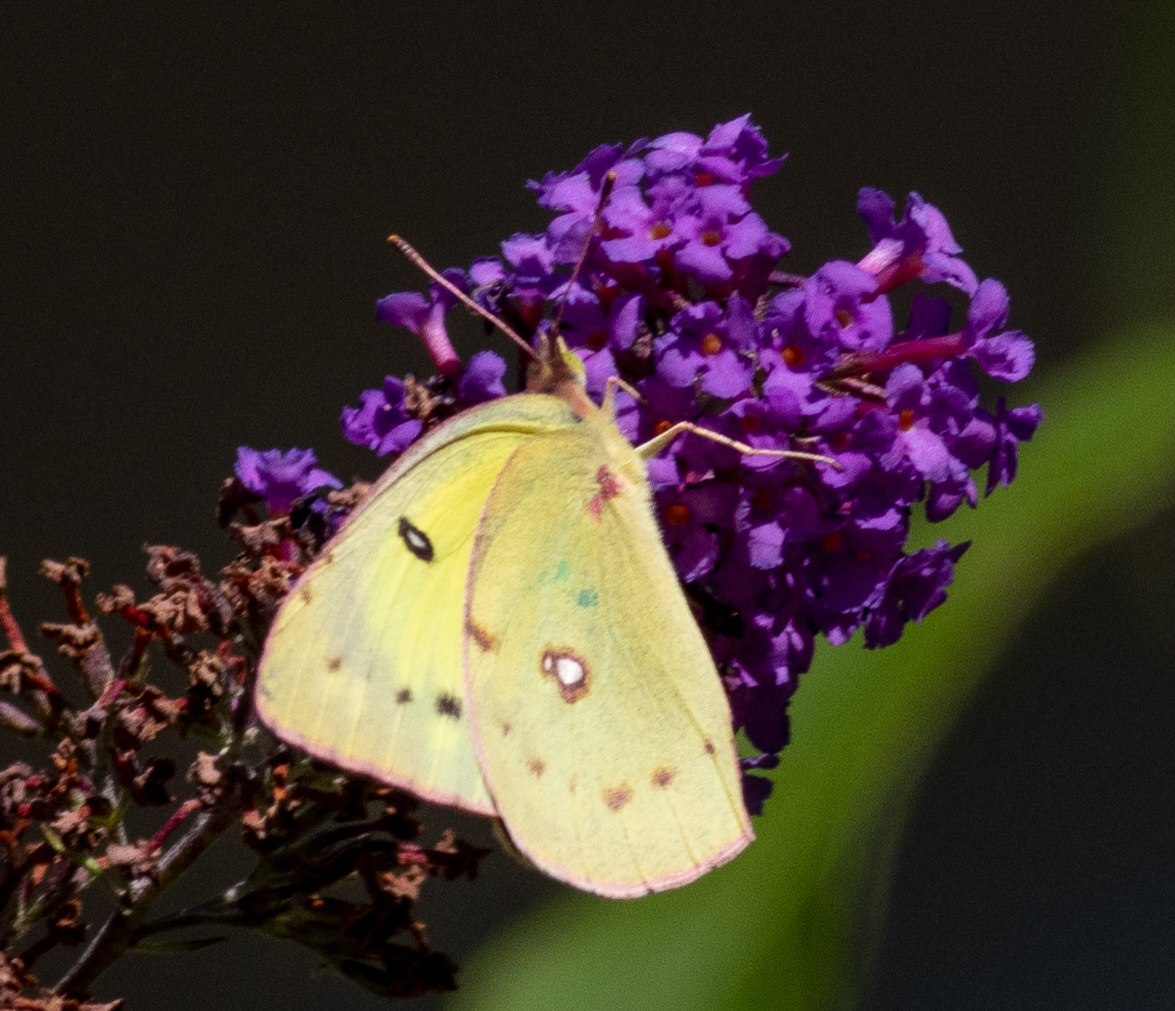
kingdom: Animalia
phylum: Arthropoda
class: Insecta
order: Lepidoptera
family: Pieridae
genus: Colias
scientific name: Colias eurytheme
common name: Alfalfa butterfly
